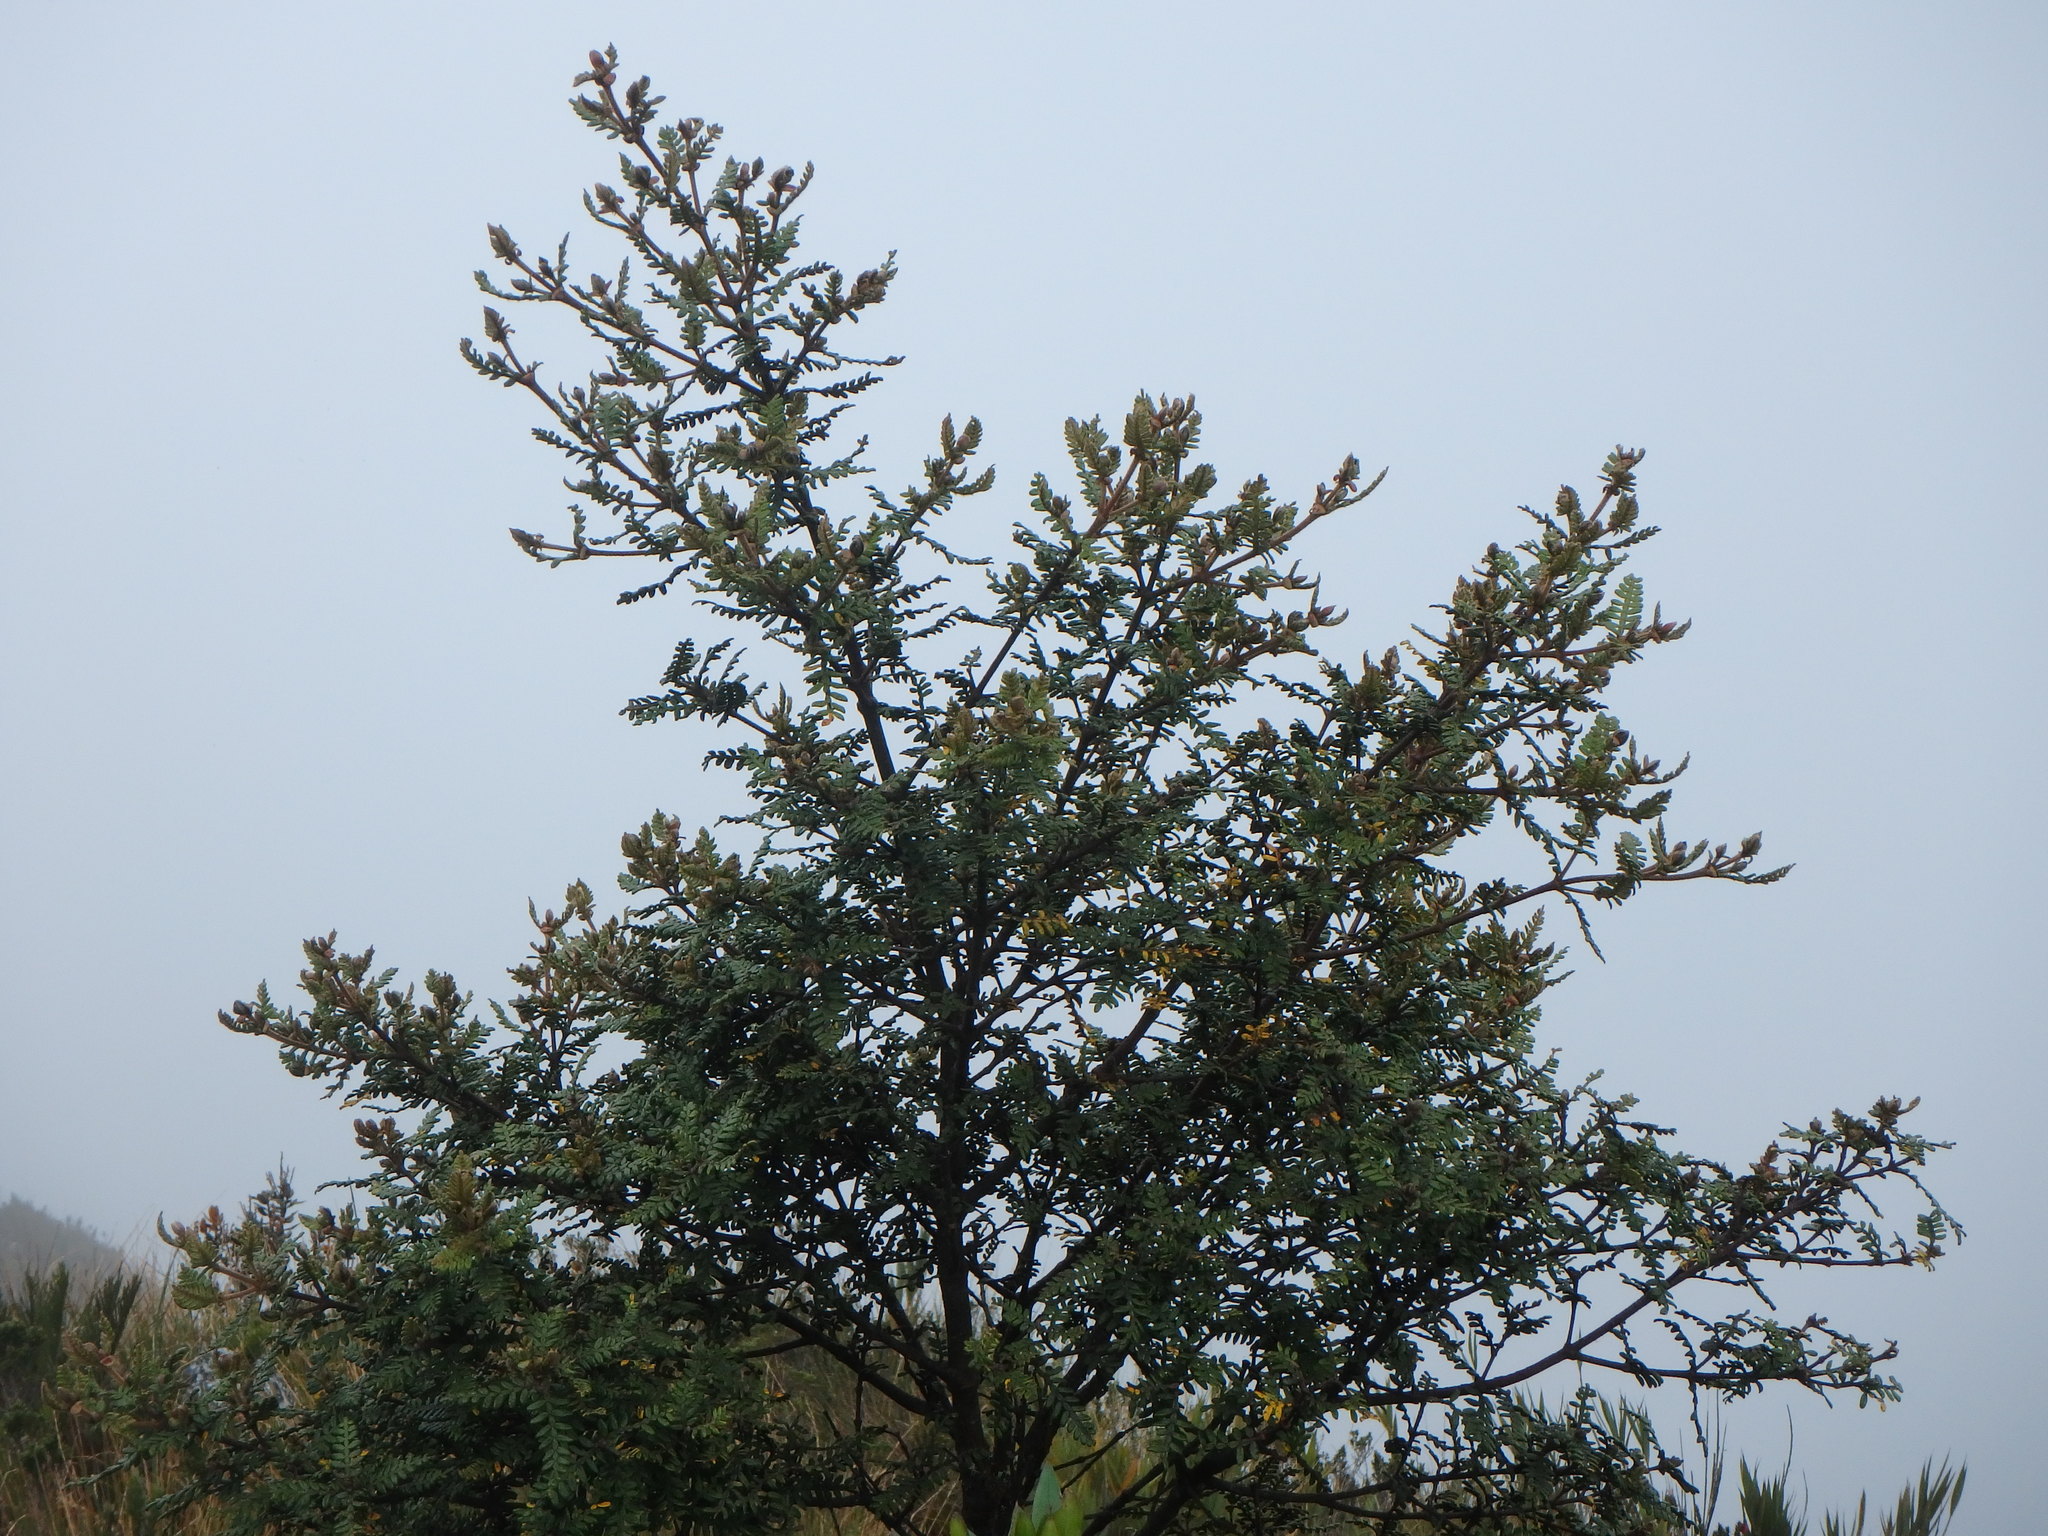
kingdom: Plantae
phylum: Tracheophyta
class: Magnoliopsida
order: Oxalidales
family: Cunoniaceae
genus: Weinmannia
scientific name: Weinmannia tomentosa
